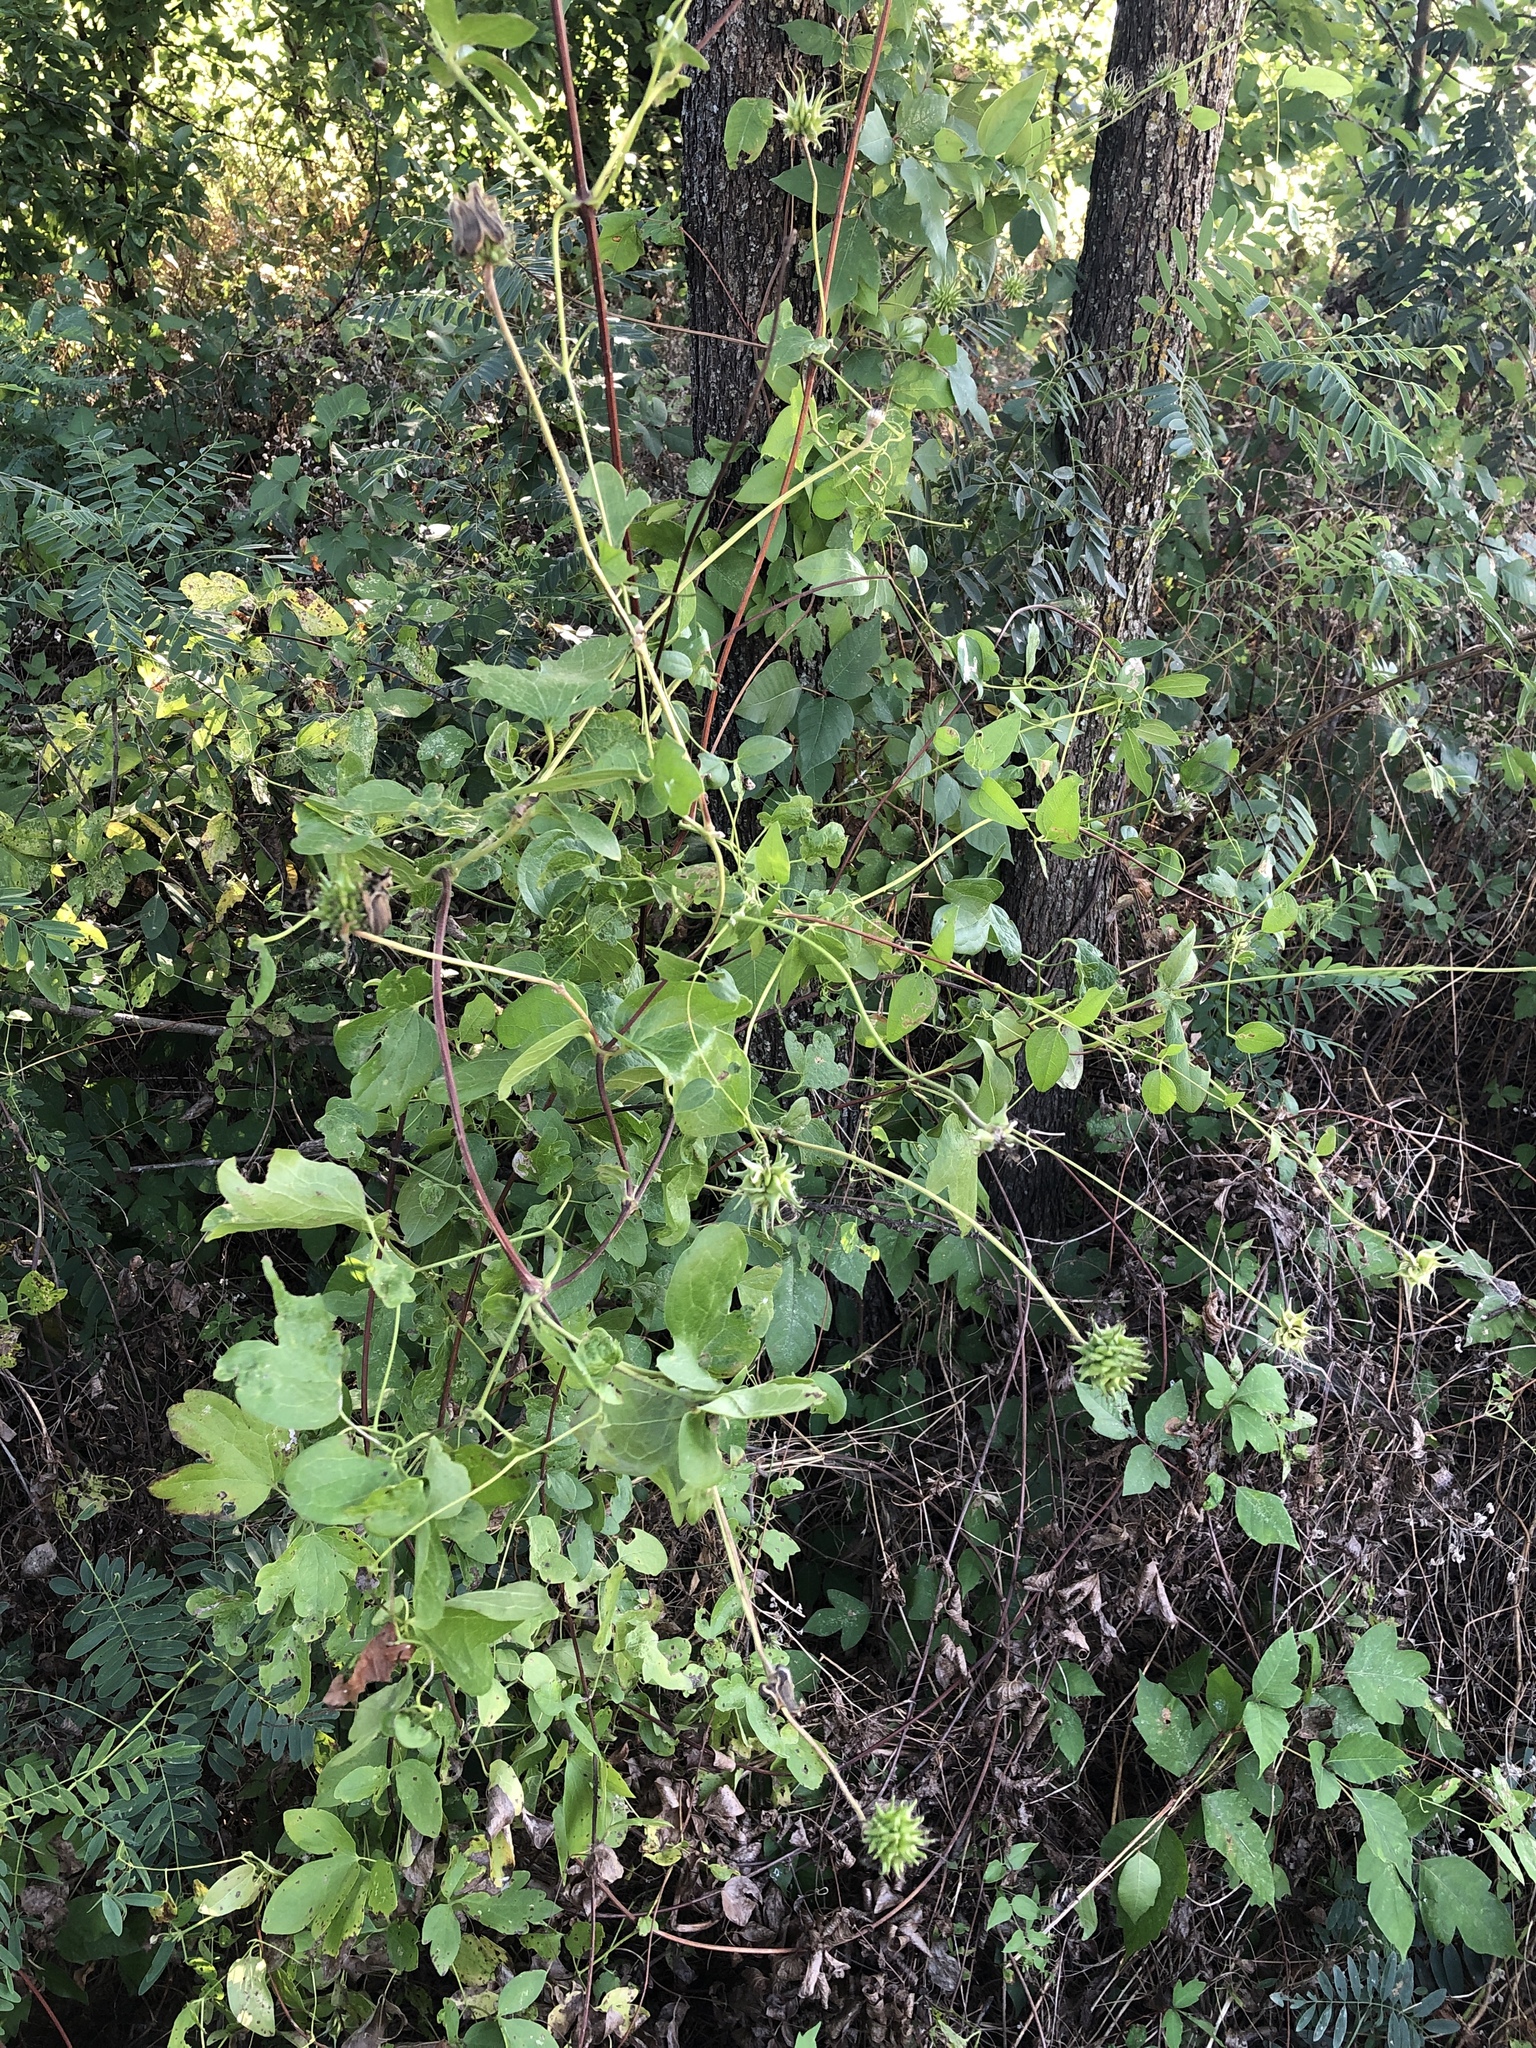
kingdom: Plantae
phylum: Tracheophyta
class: Magnoliopsida
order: Ranunculales
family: Ranunculaceae
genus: Clematis
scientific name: Clematis pitcheri
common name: Bellflower clematis
